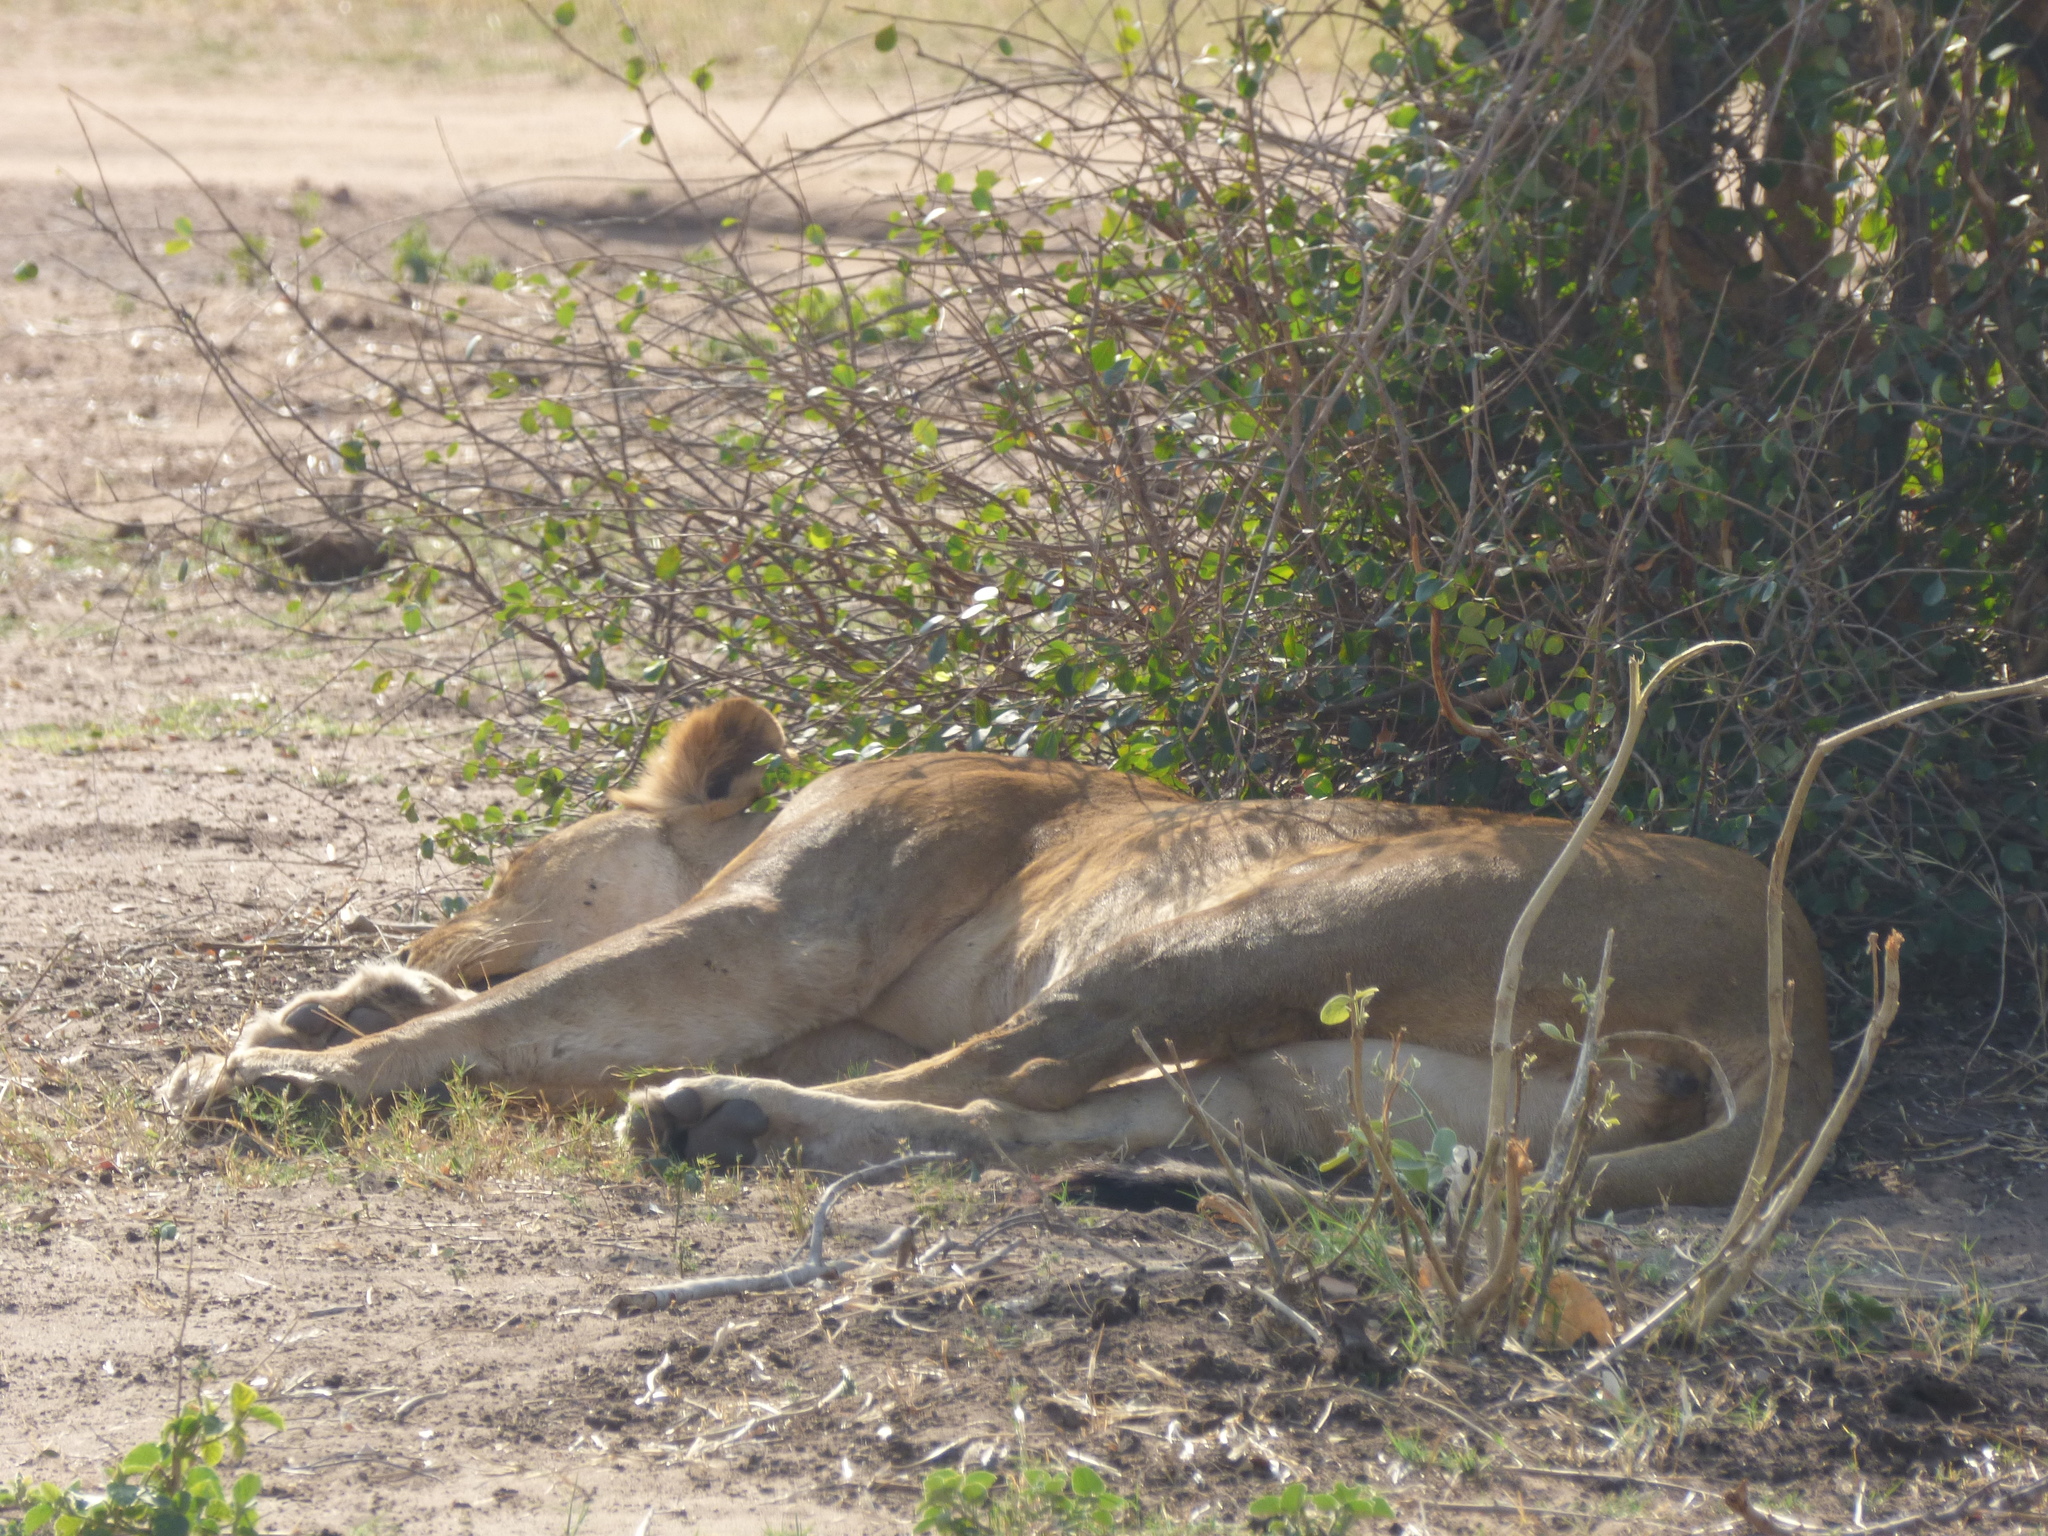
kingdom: Animalia
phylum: Chordata
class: Mammalia
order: Carnivora
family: Felidae
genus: Panthera
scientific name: Panthera leo
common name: Lion
